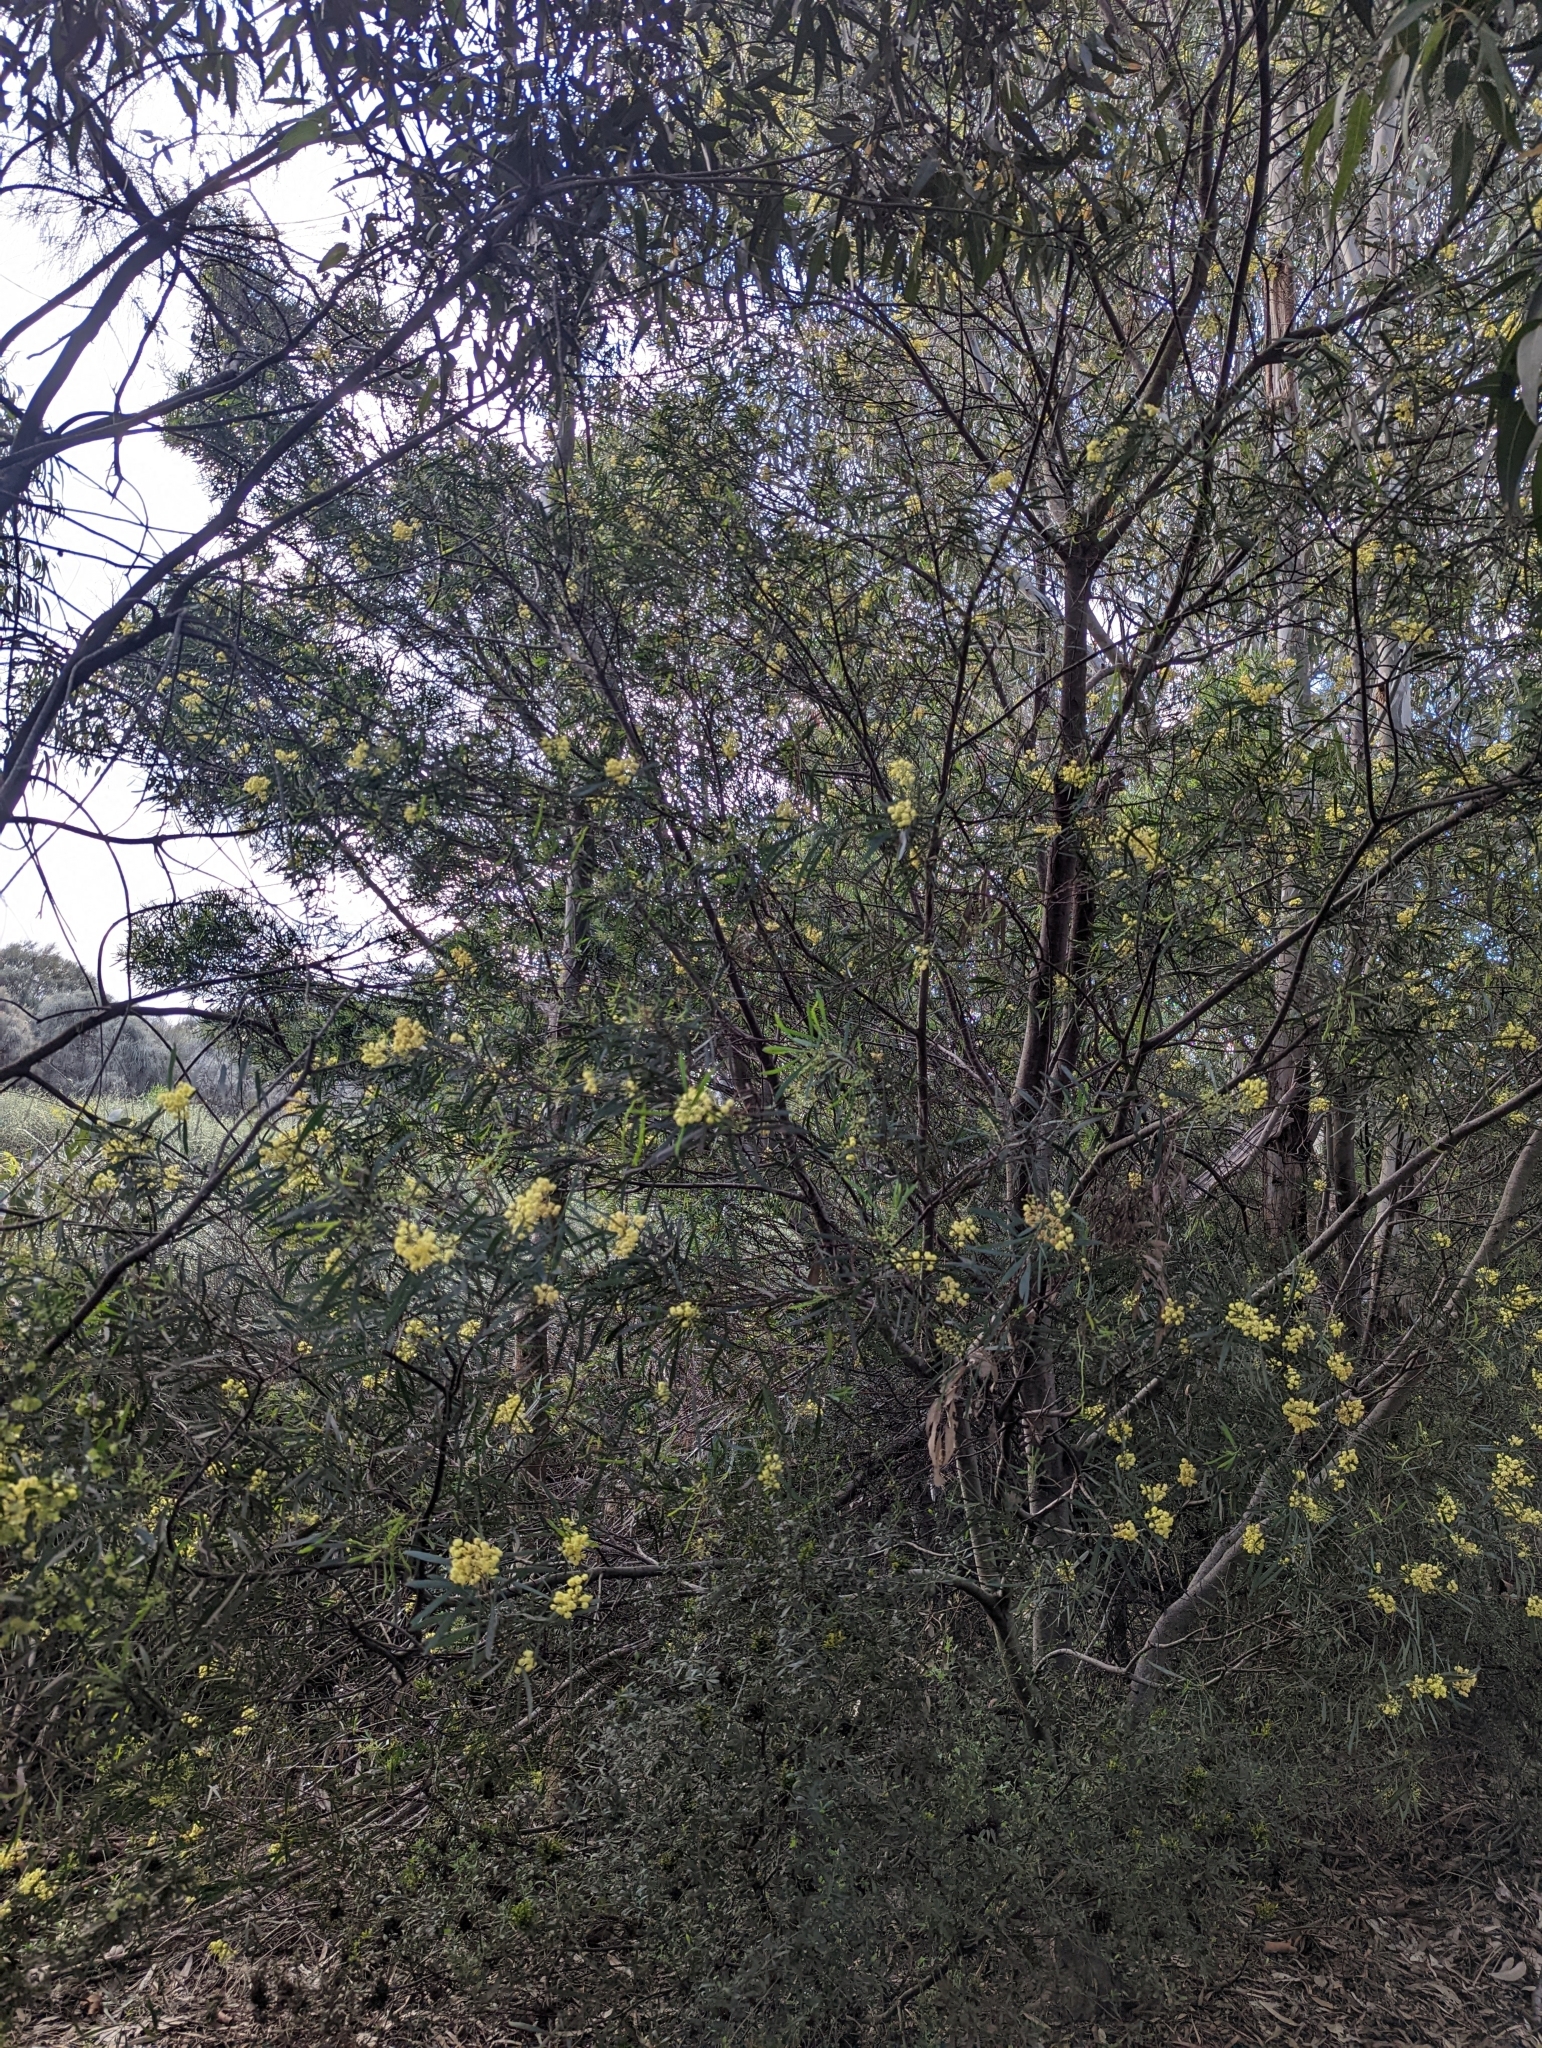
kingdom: Plantae
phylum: Tracheophyta
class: Magnoliopsida
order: Fabales
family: Fabaceae
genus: Acacia
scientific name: Acacia provincialis
